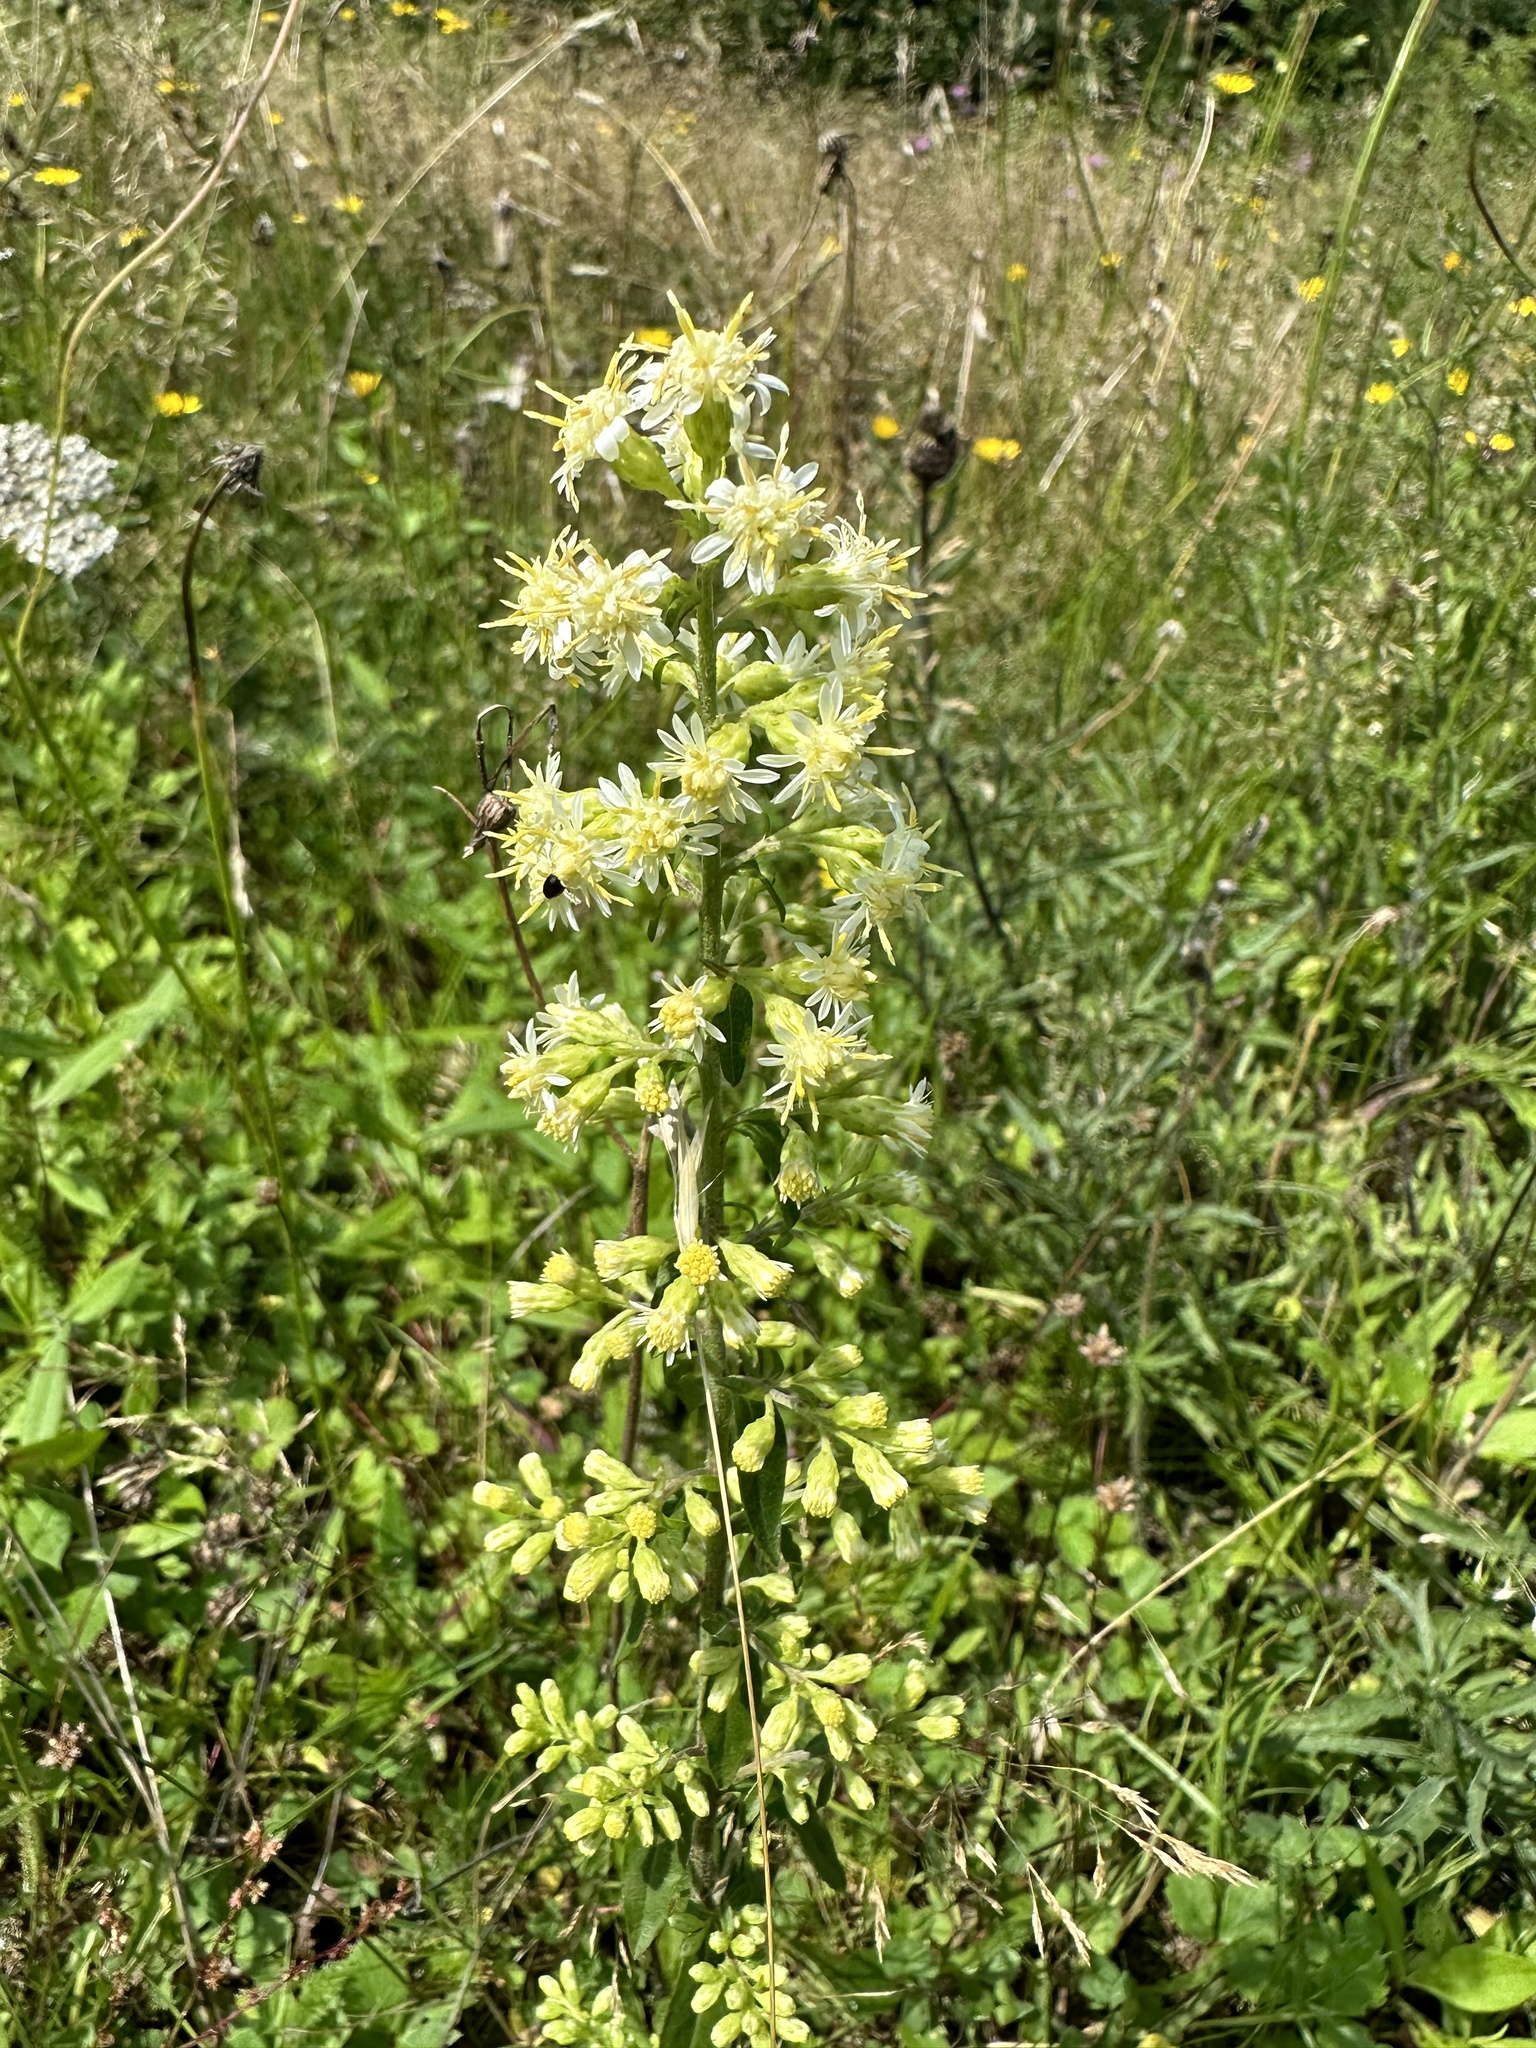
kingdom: Plantae
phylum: Tracheophyta
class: Magnoliopsida
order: Asterales
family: Asteraceae
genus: Solidago
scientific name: Solidago bicolor
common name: Silverrod
